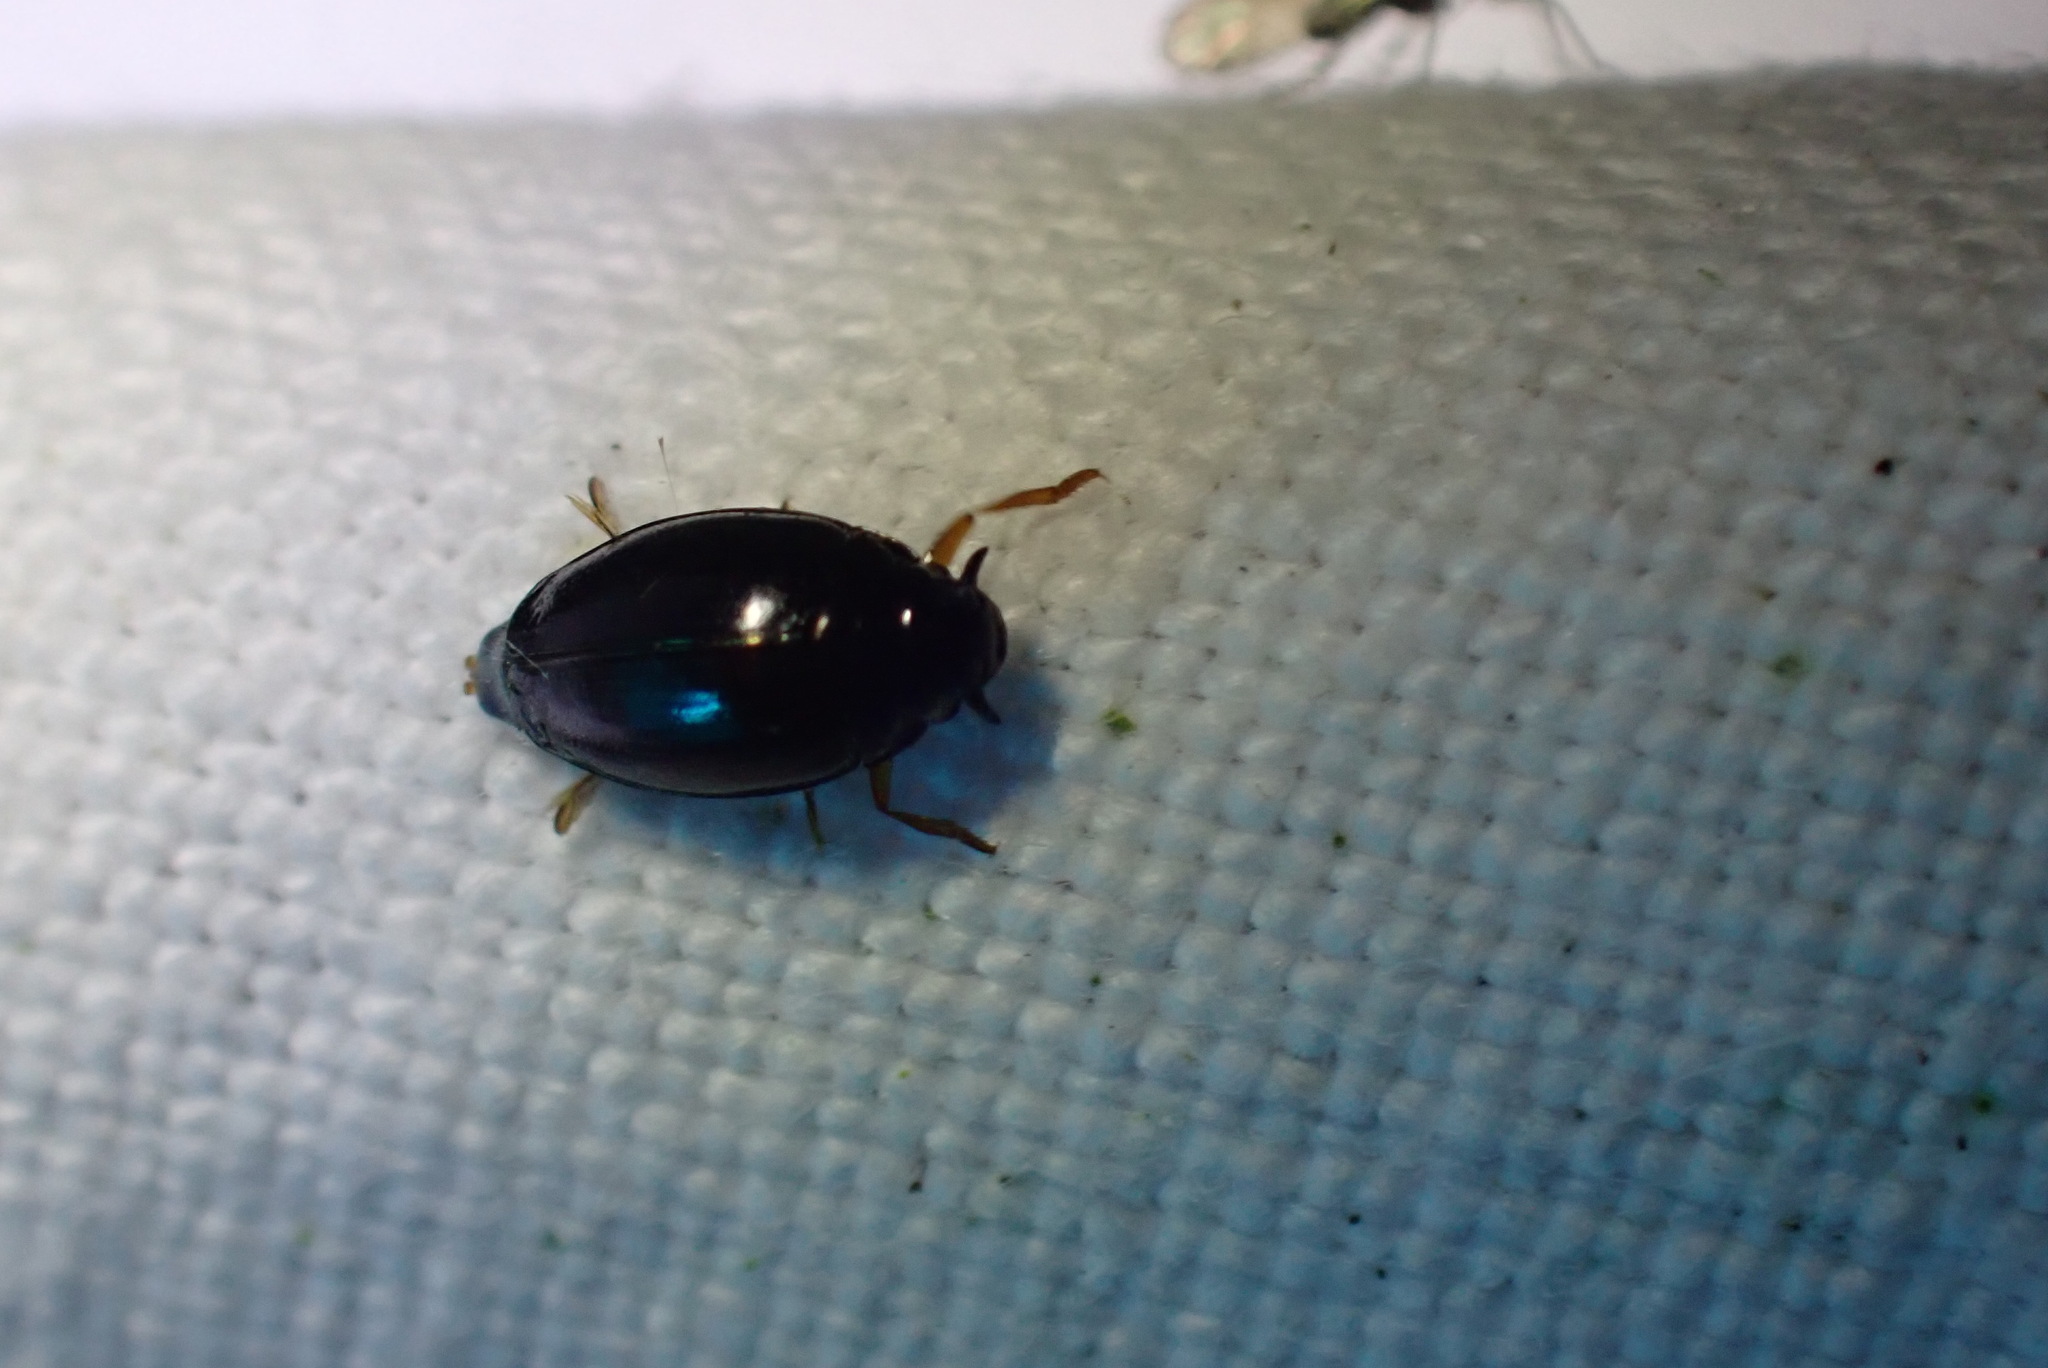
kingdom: Animalia
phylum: Arthropoda
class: Insecta
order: Coleoptera
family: Gyrinidae
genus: Gyrinus
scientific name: Gyrinus
